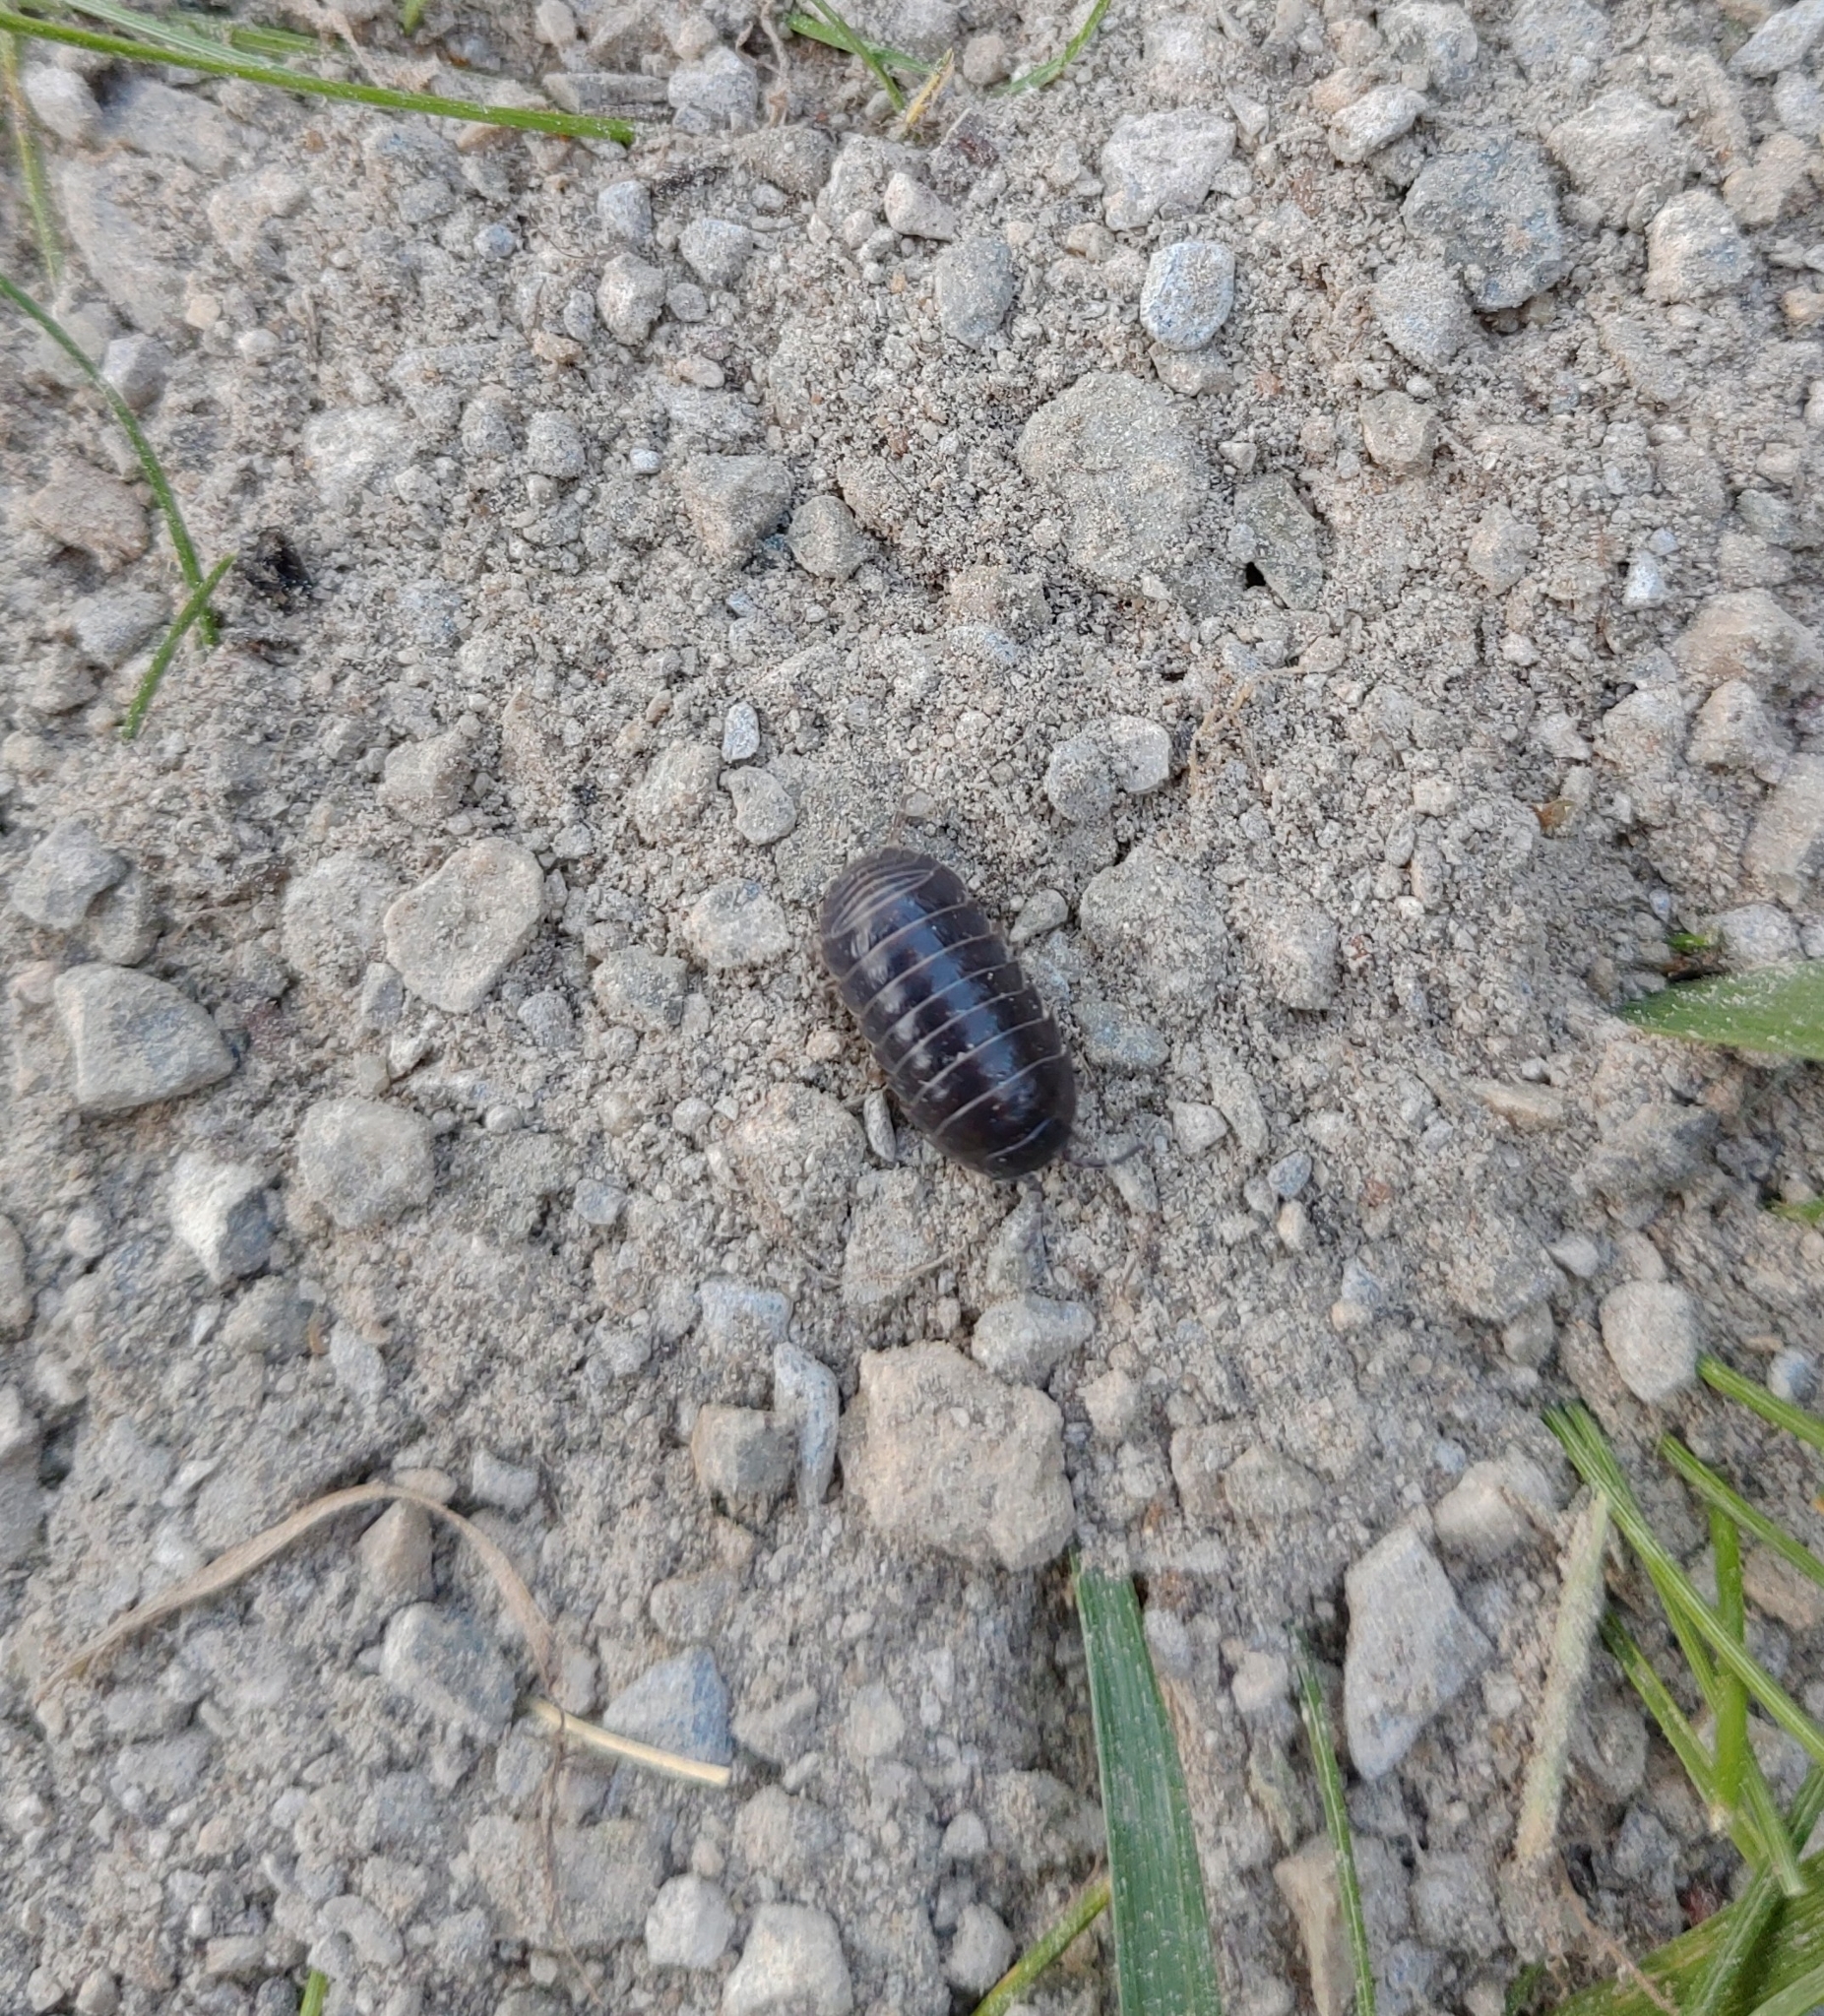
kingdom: Animalia
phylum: Arthropoda
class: Malacostraca
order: Isopoda
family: Armadillidiidae
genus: Armadillidium
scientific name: Armadillidium vulgare
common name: Common pill woodlouse
